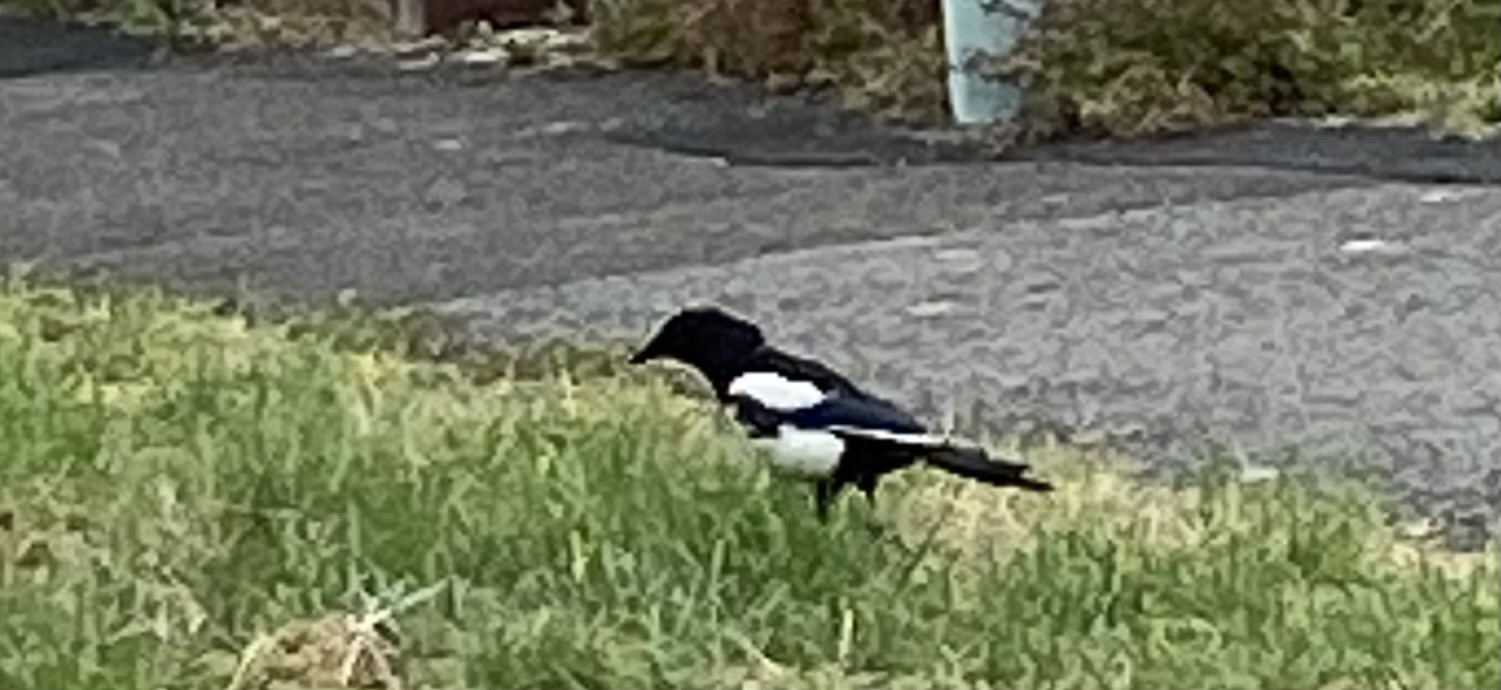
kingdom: Animalia
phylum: Chordata
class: Aves
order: Passeriformes
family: Corvidae
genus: Pica
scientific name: Pica pica
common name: Eurasian magpie
